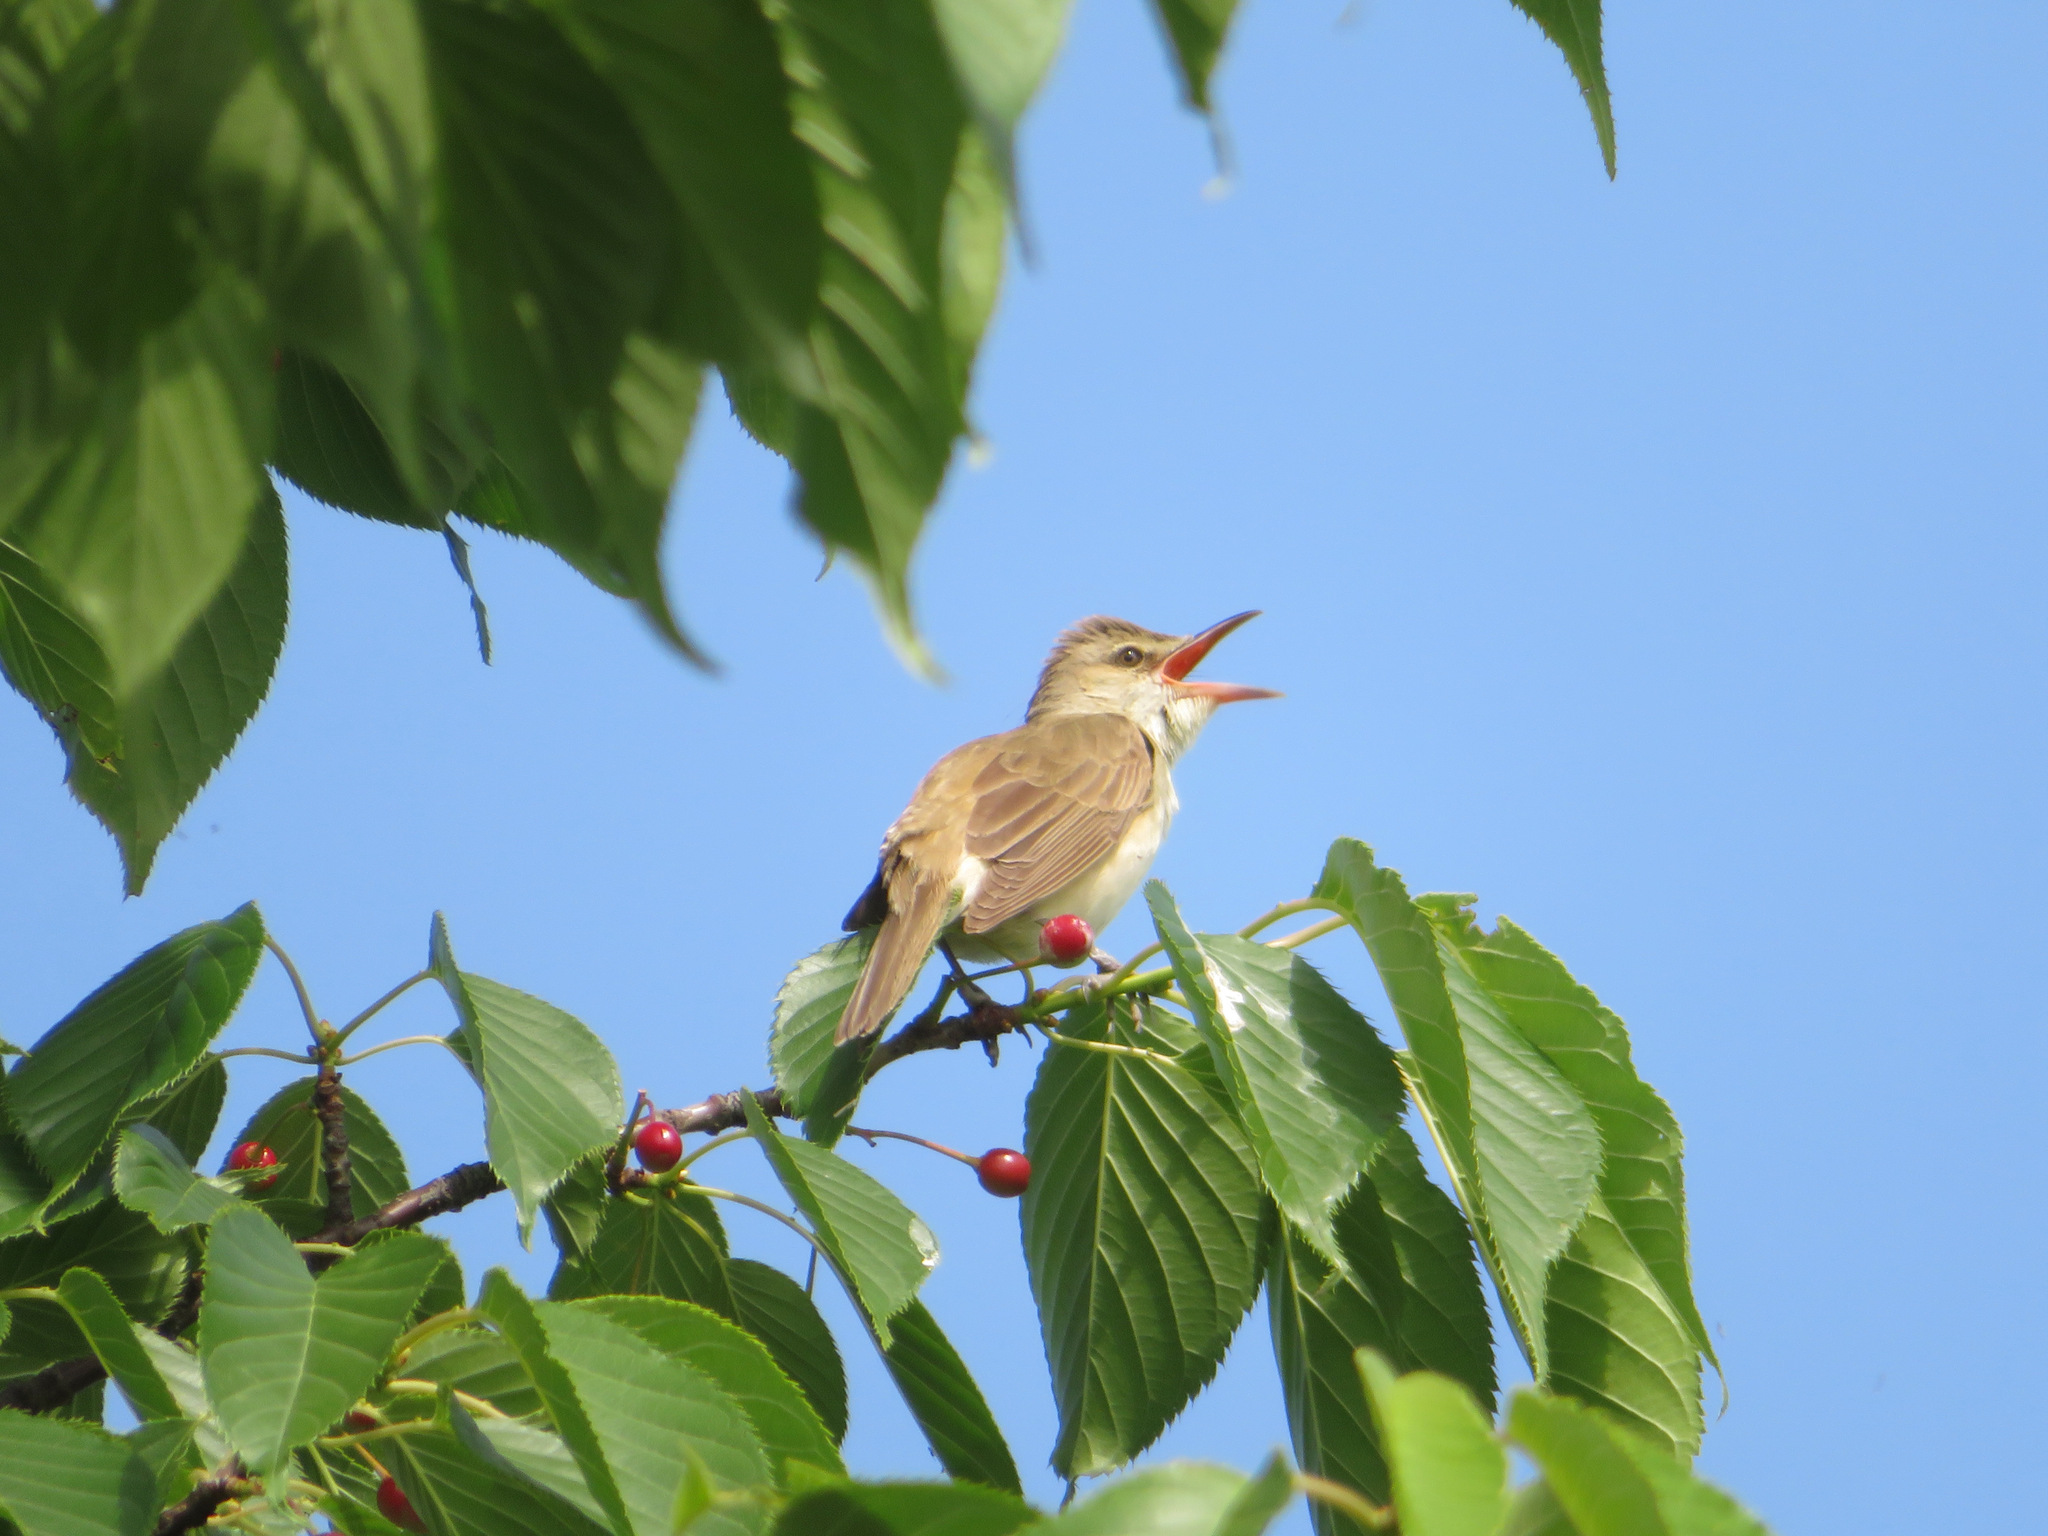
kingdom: Animalia
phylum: Chordata
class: Aves
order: Passeriformes
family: Acrocephalidae
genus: Acrocephalus
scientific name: Acrocephalus orientalis
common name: Oriental reed warbler
